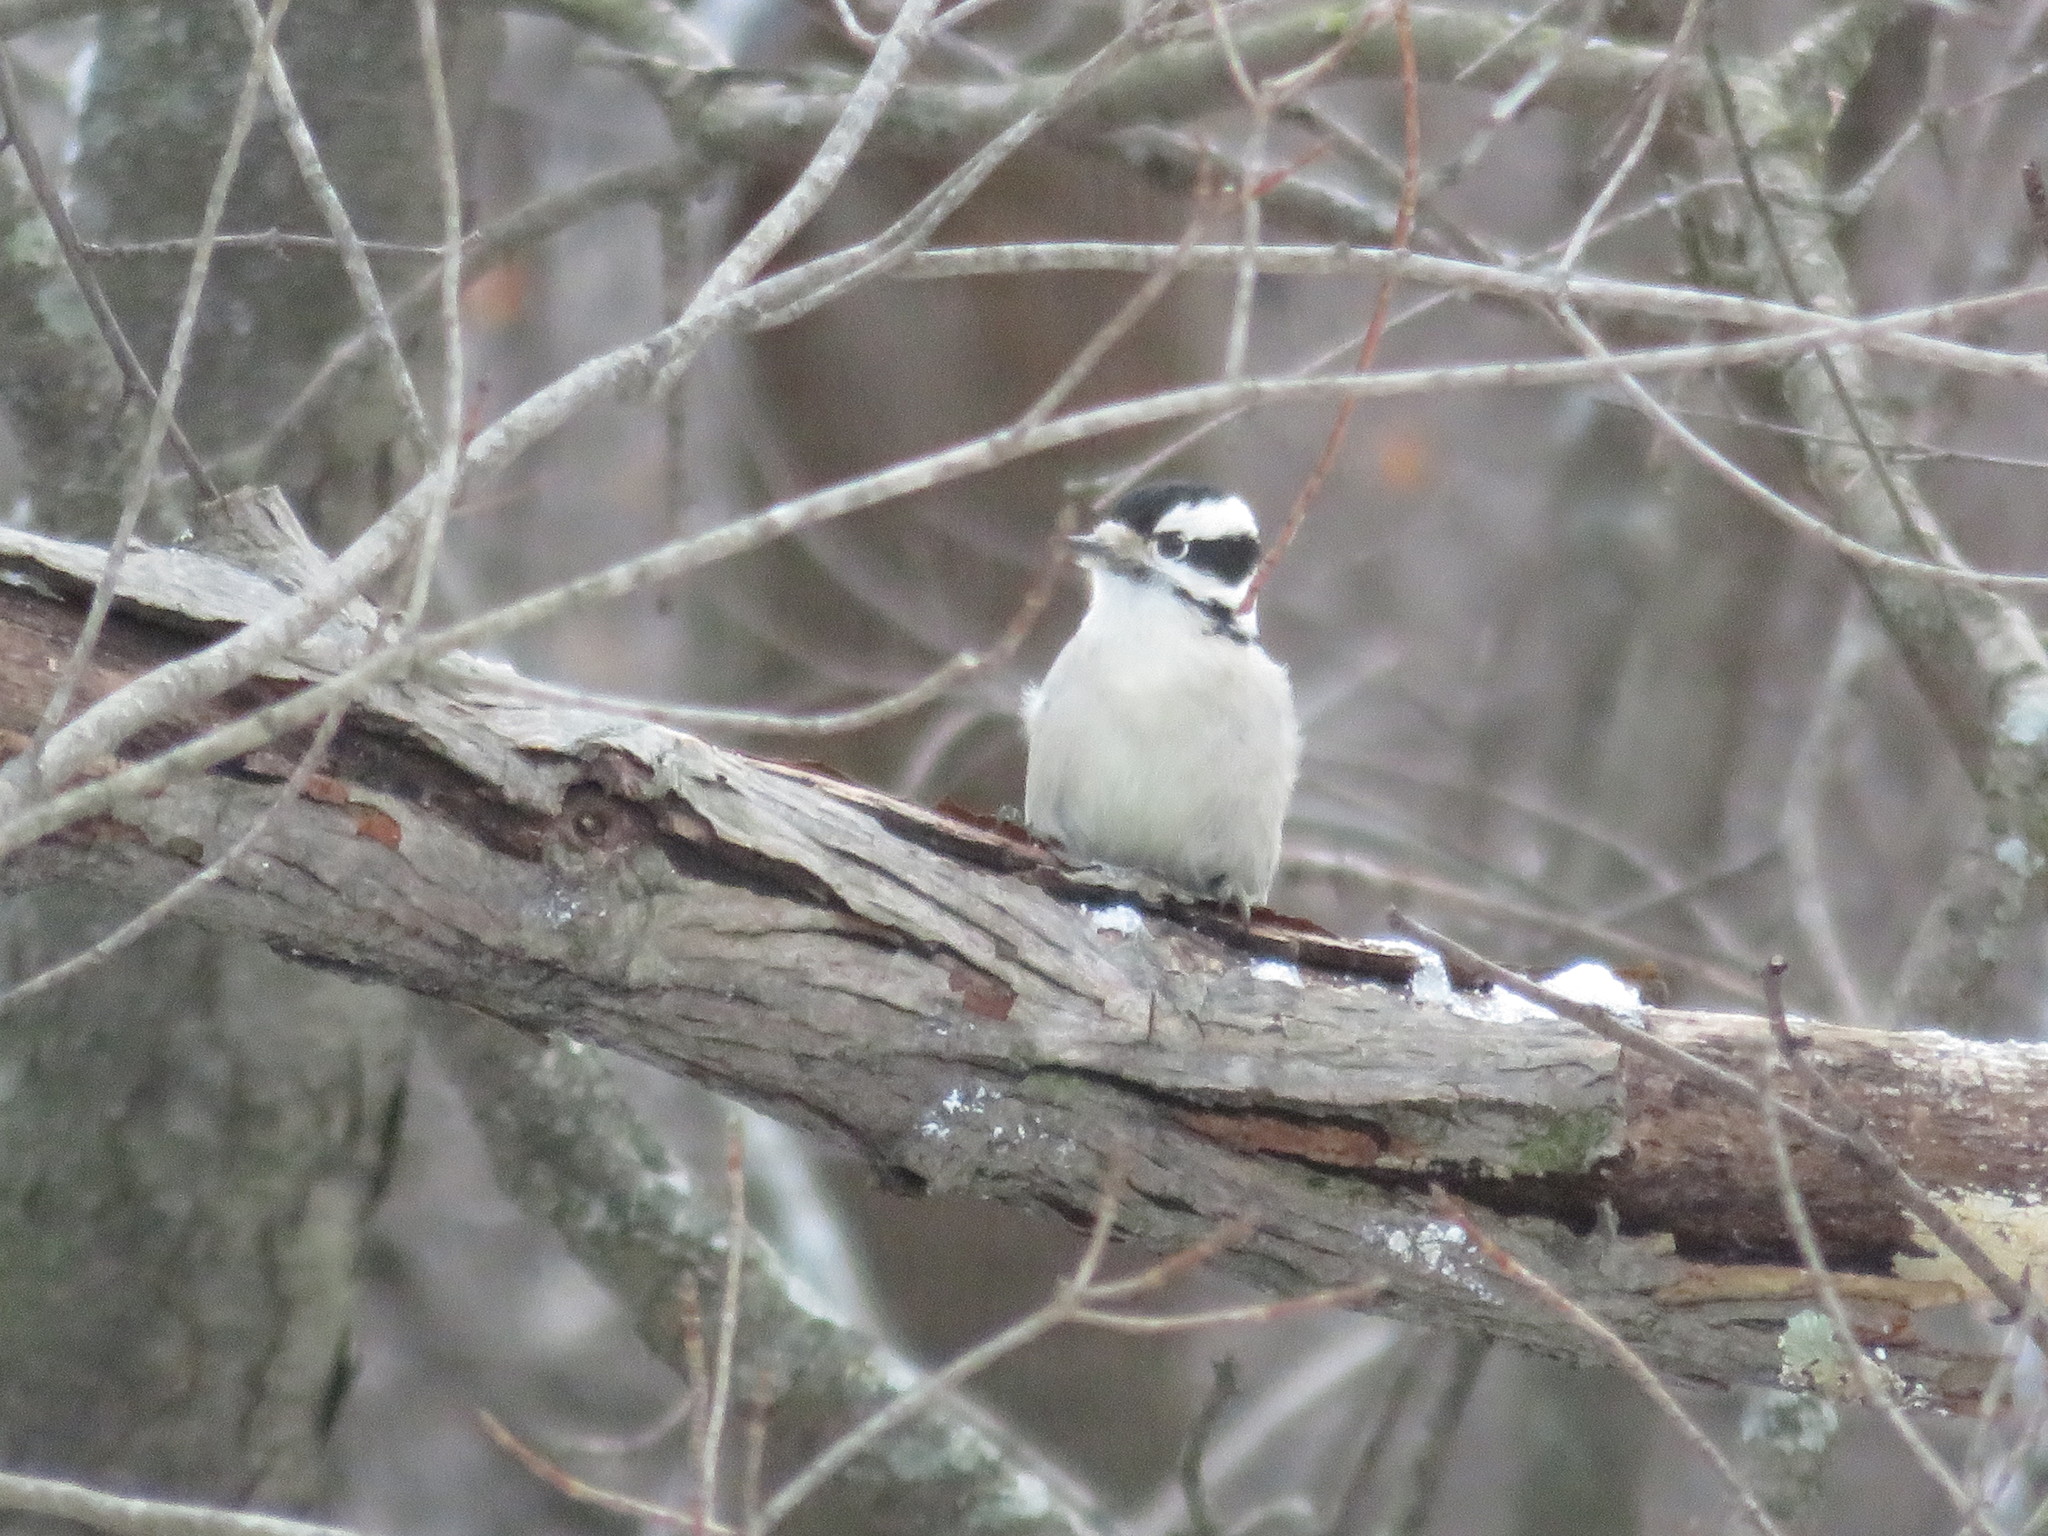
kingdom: Animalia
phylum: Chordata
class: Aves
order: Piciformes
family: Picidae
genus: Dryobates
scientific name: Dryobates pubescens
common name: Downy woodpecker
